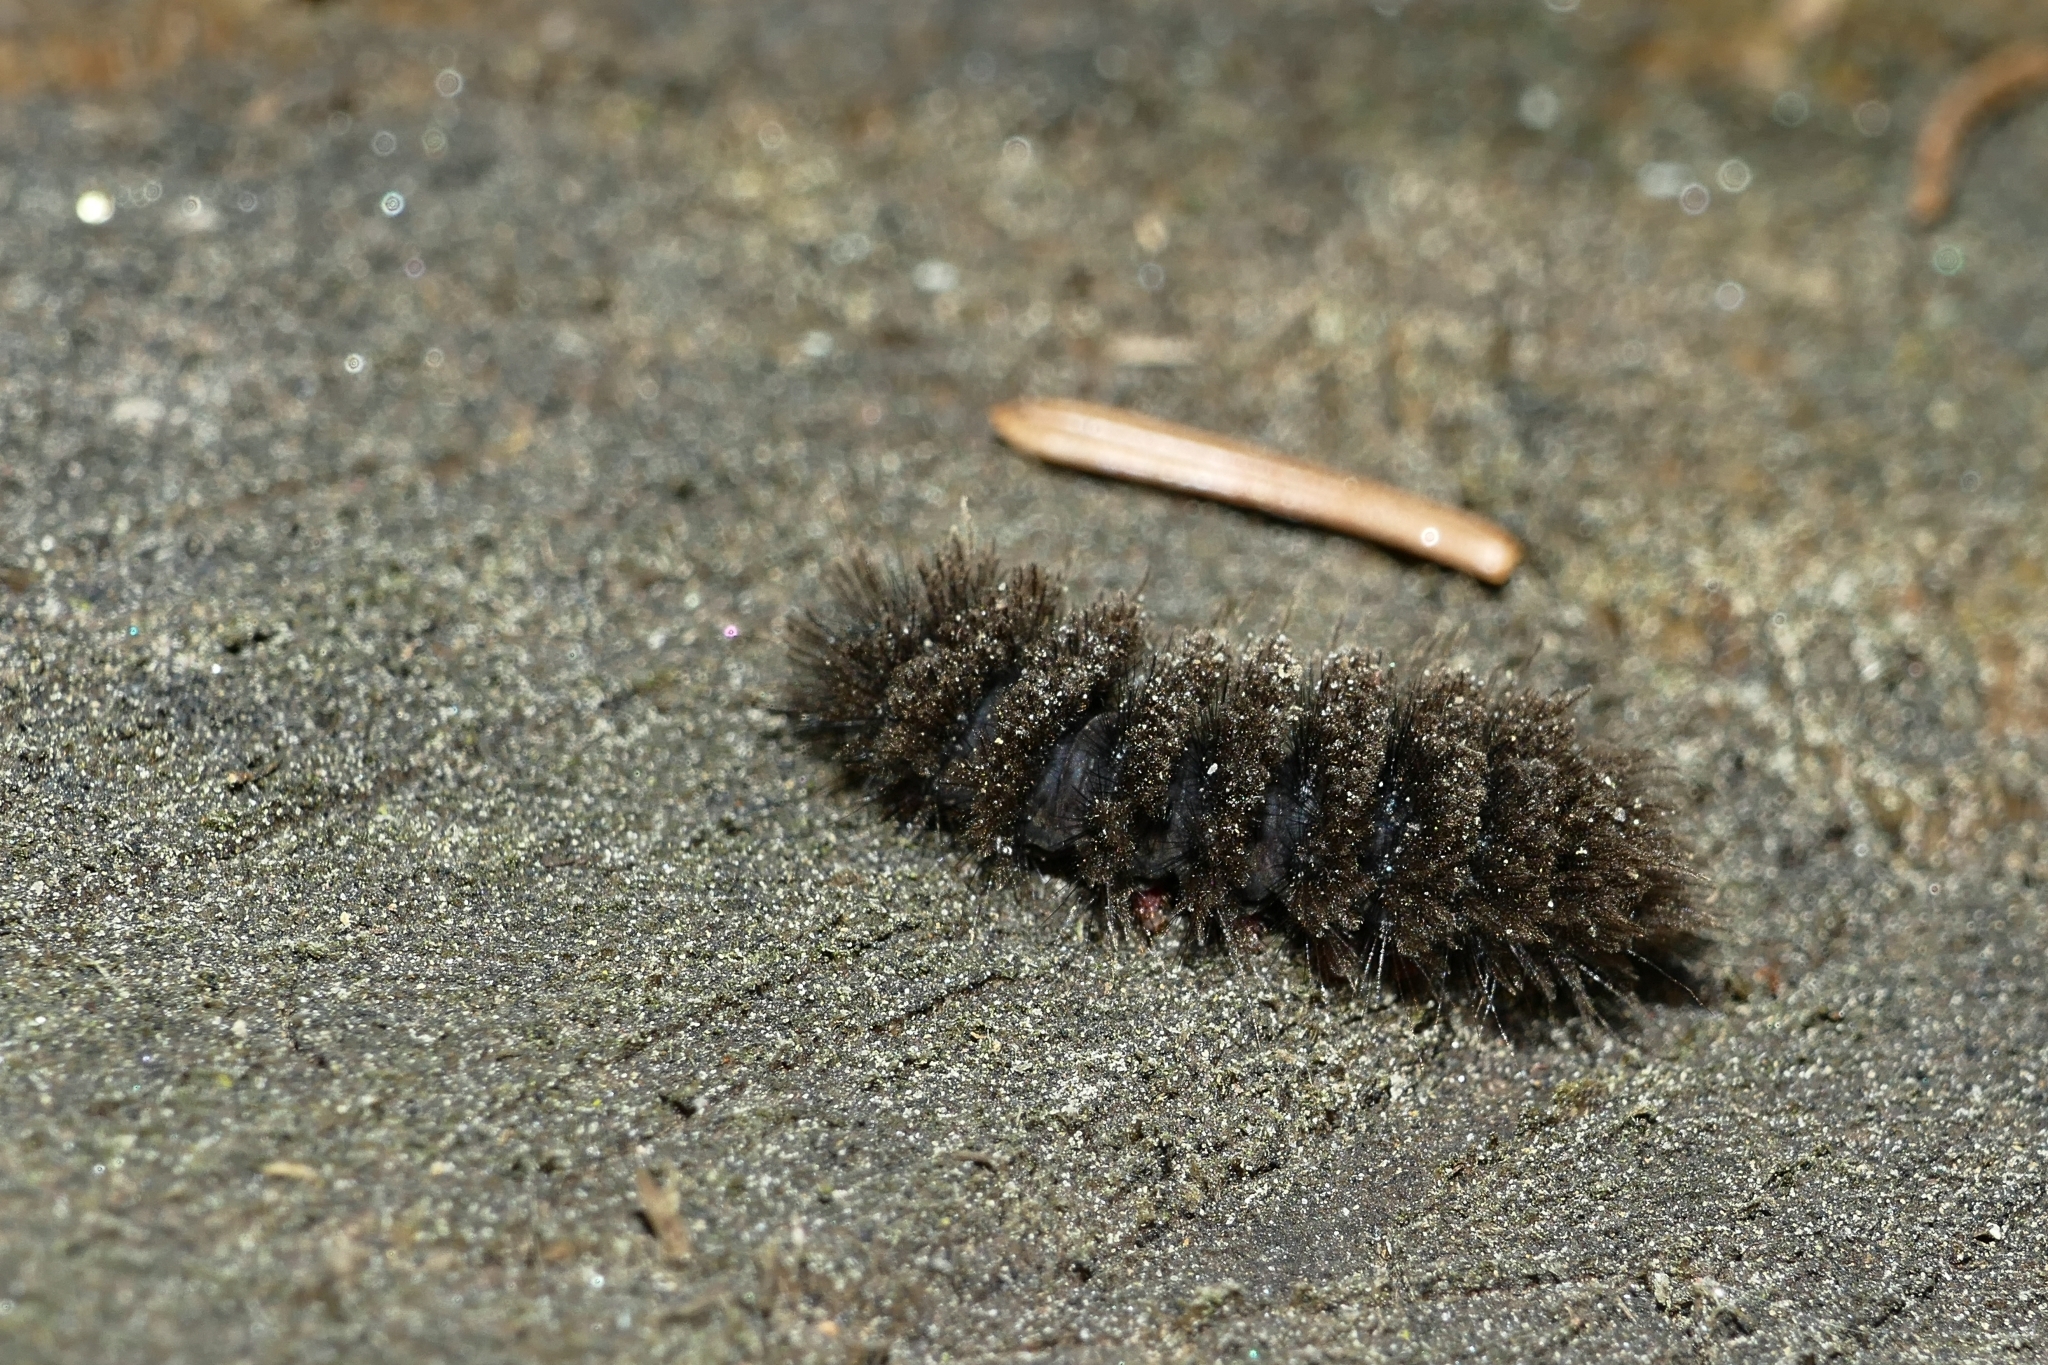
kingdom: Animalia
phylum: Arthropoda
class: Insecta
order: Lepidoptera
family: Erebidae
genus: Amata
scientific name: Amata phegea
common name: Nine-spotted
